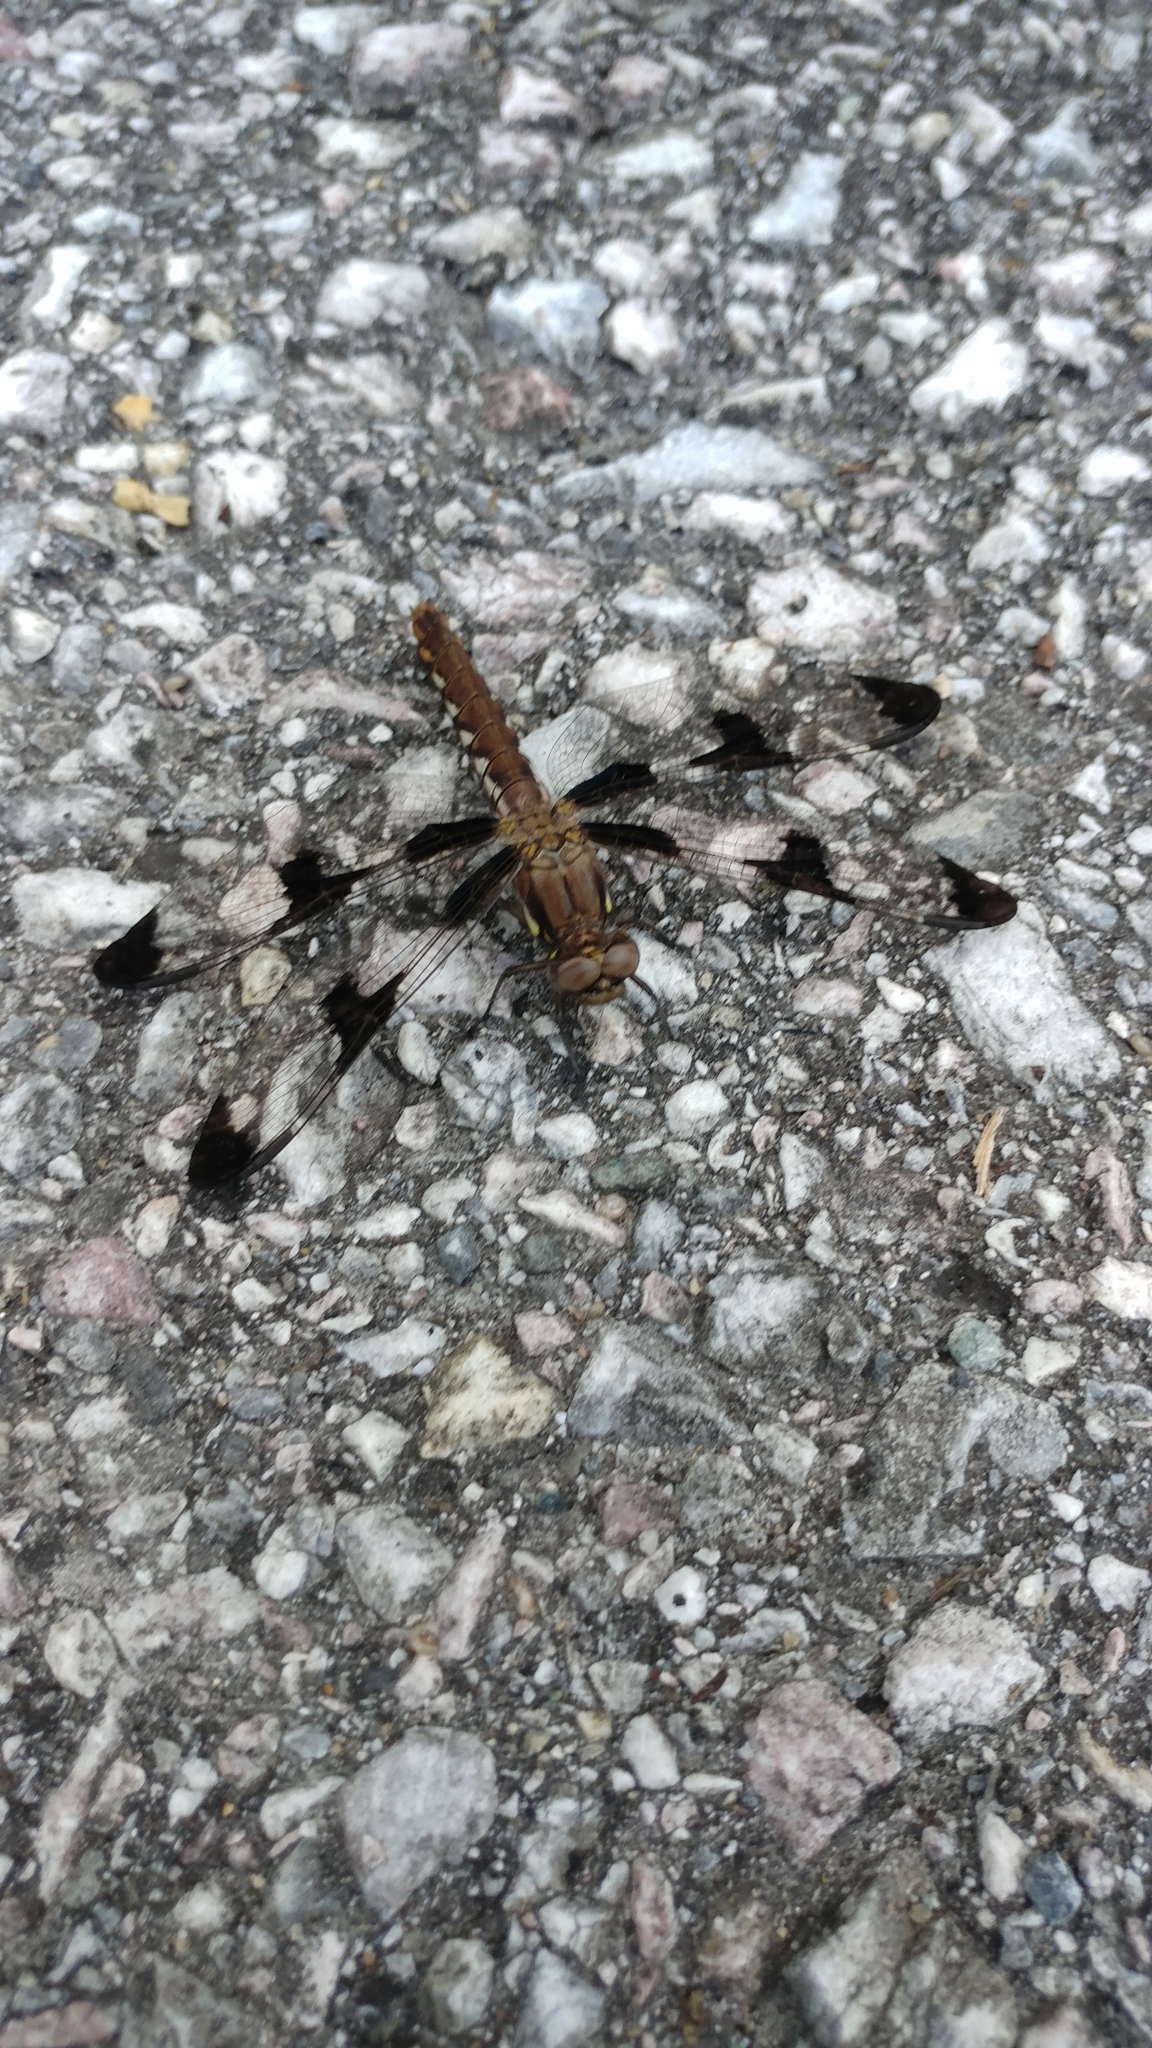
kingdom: Animalia
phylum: Arthropoda
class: Insecta
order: Odonata
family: Libellulidae
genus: Plathemis
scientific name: Plathemis lydia
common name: Common whitetail
